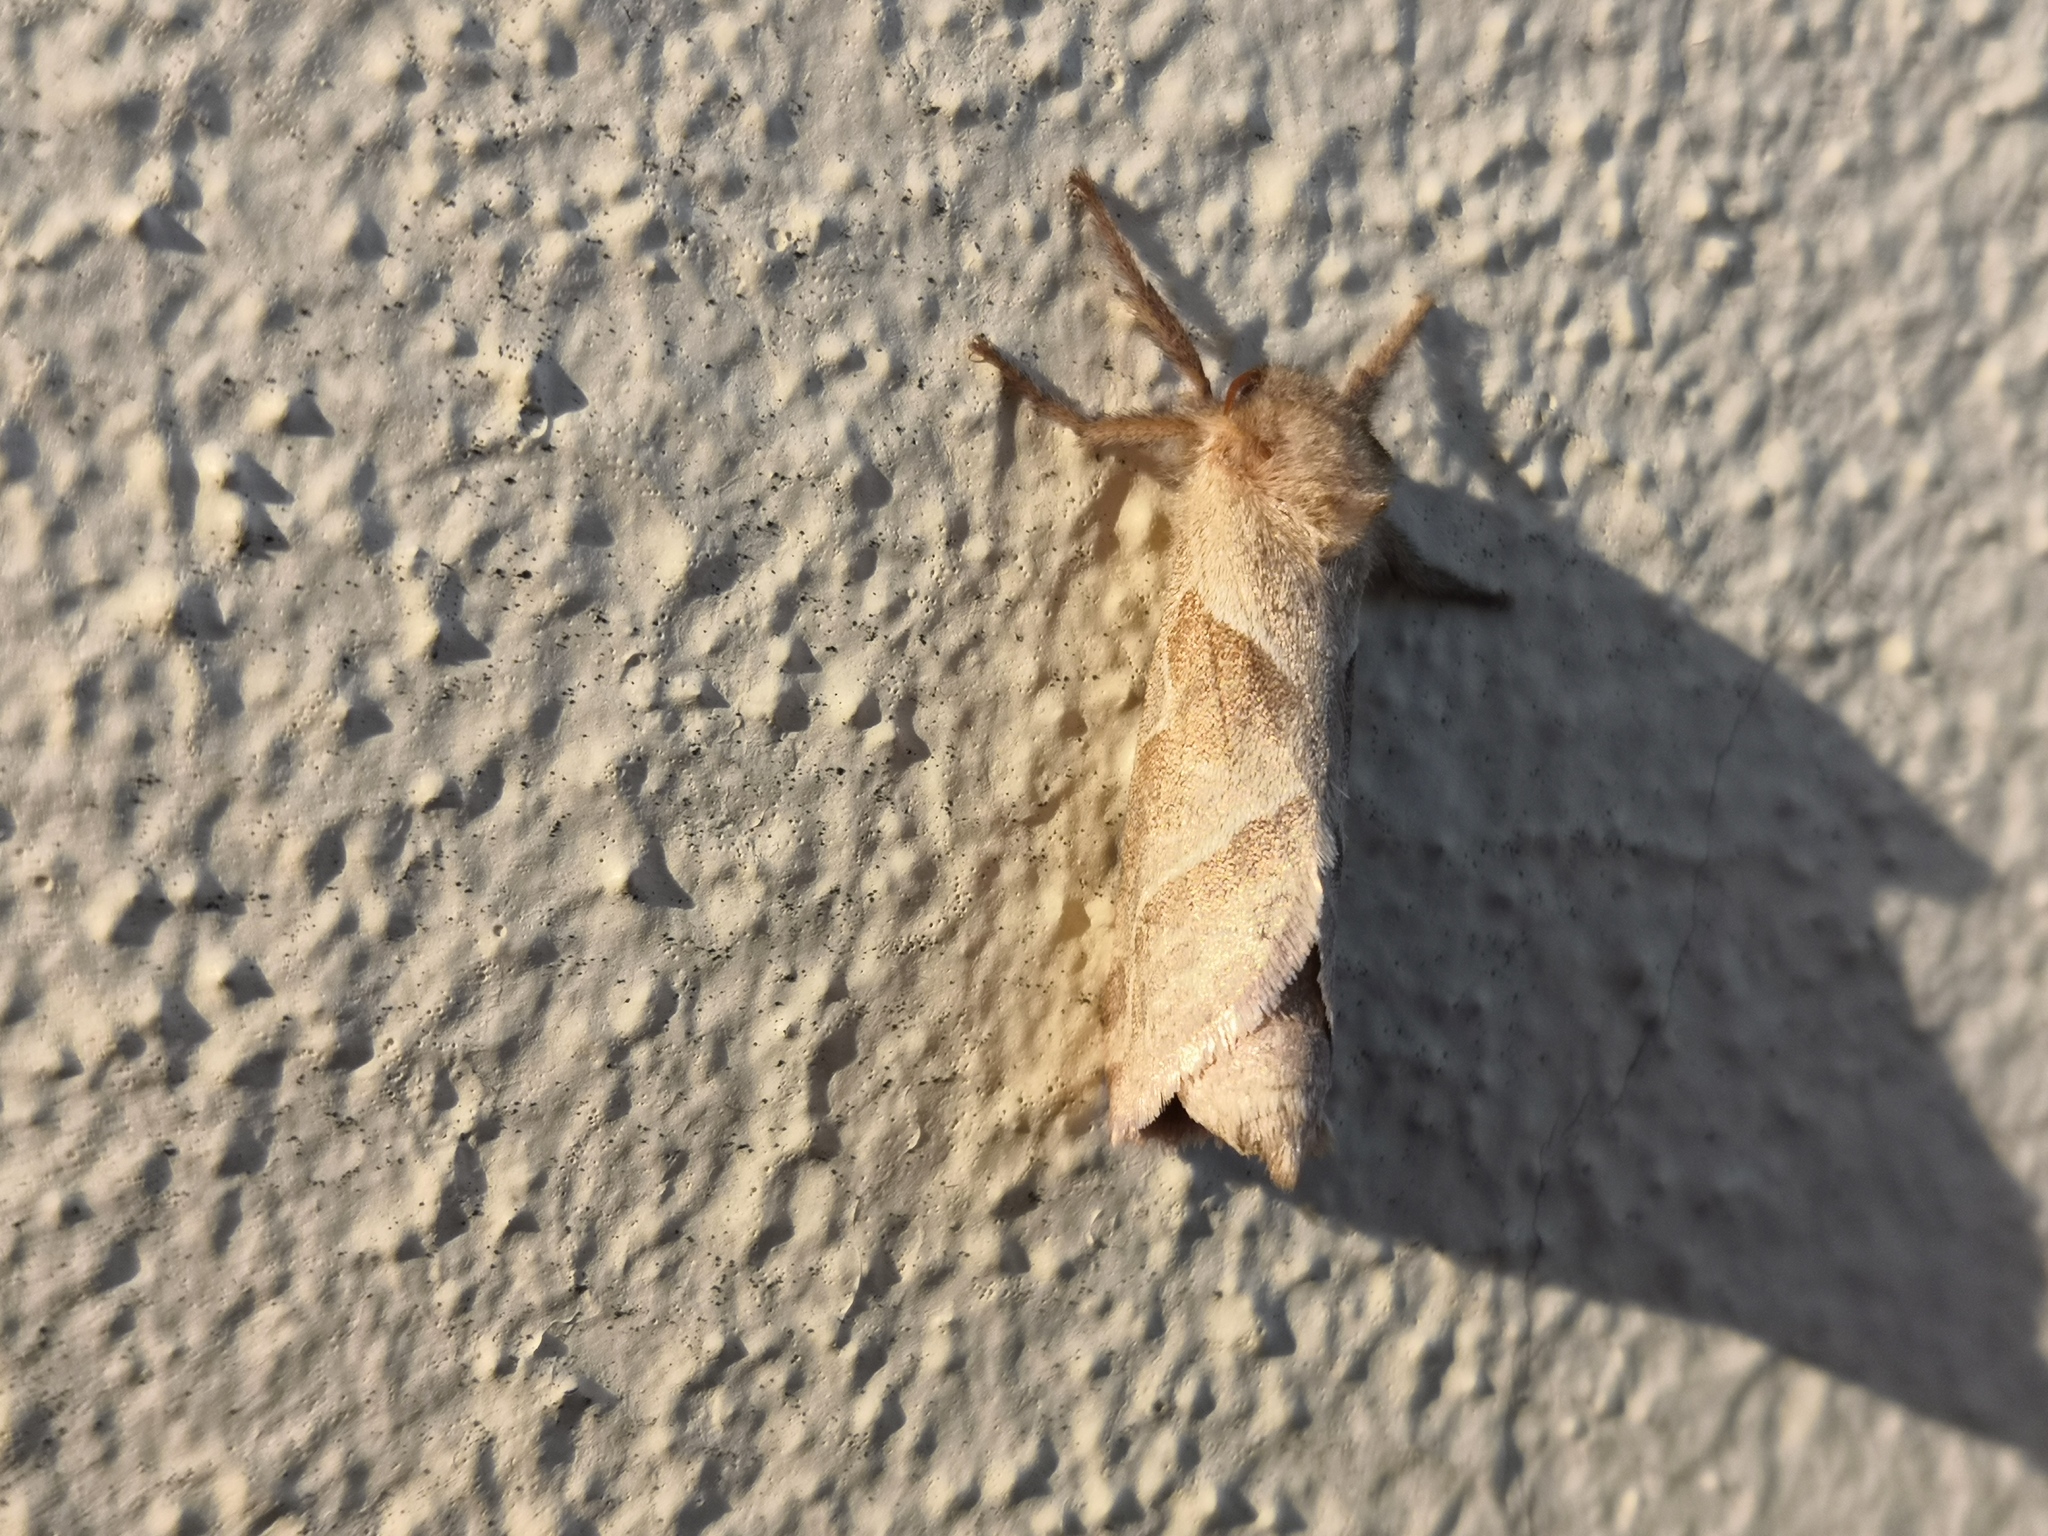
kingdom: Animalia
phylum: Arthropoda
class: Insecta
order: Lepidoptera
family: Hepialidae
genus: Triodia
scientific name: Triodia sylvina
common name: Orange swift
